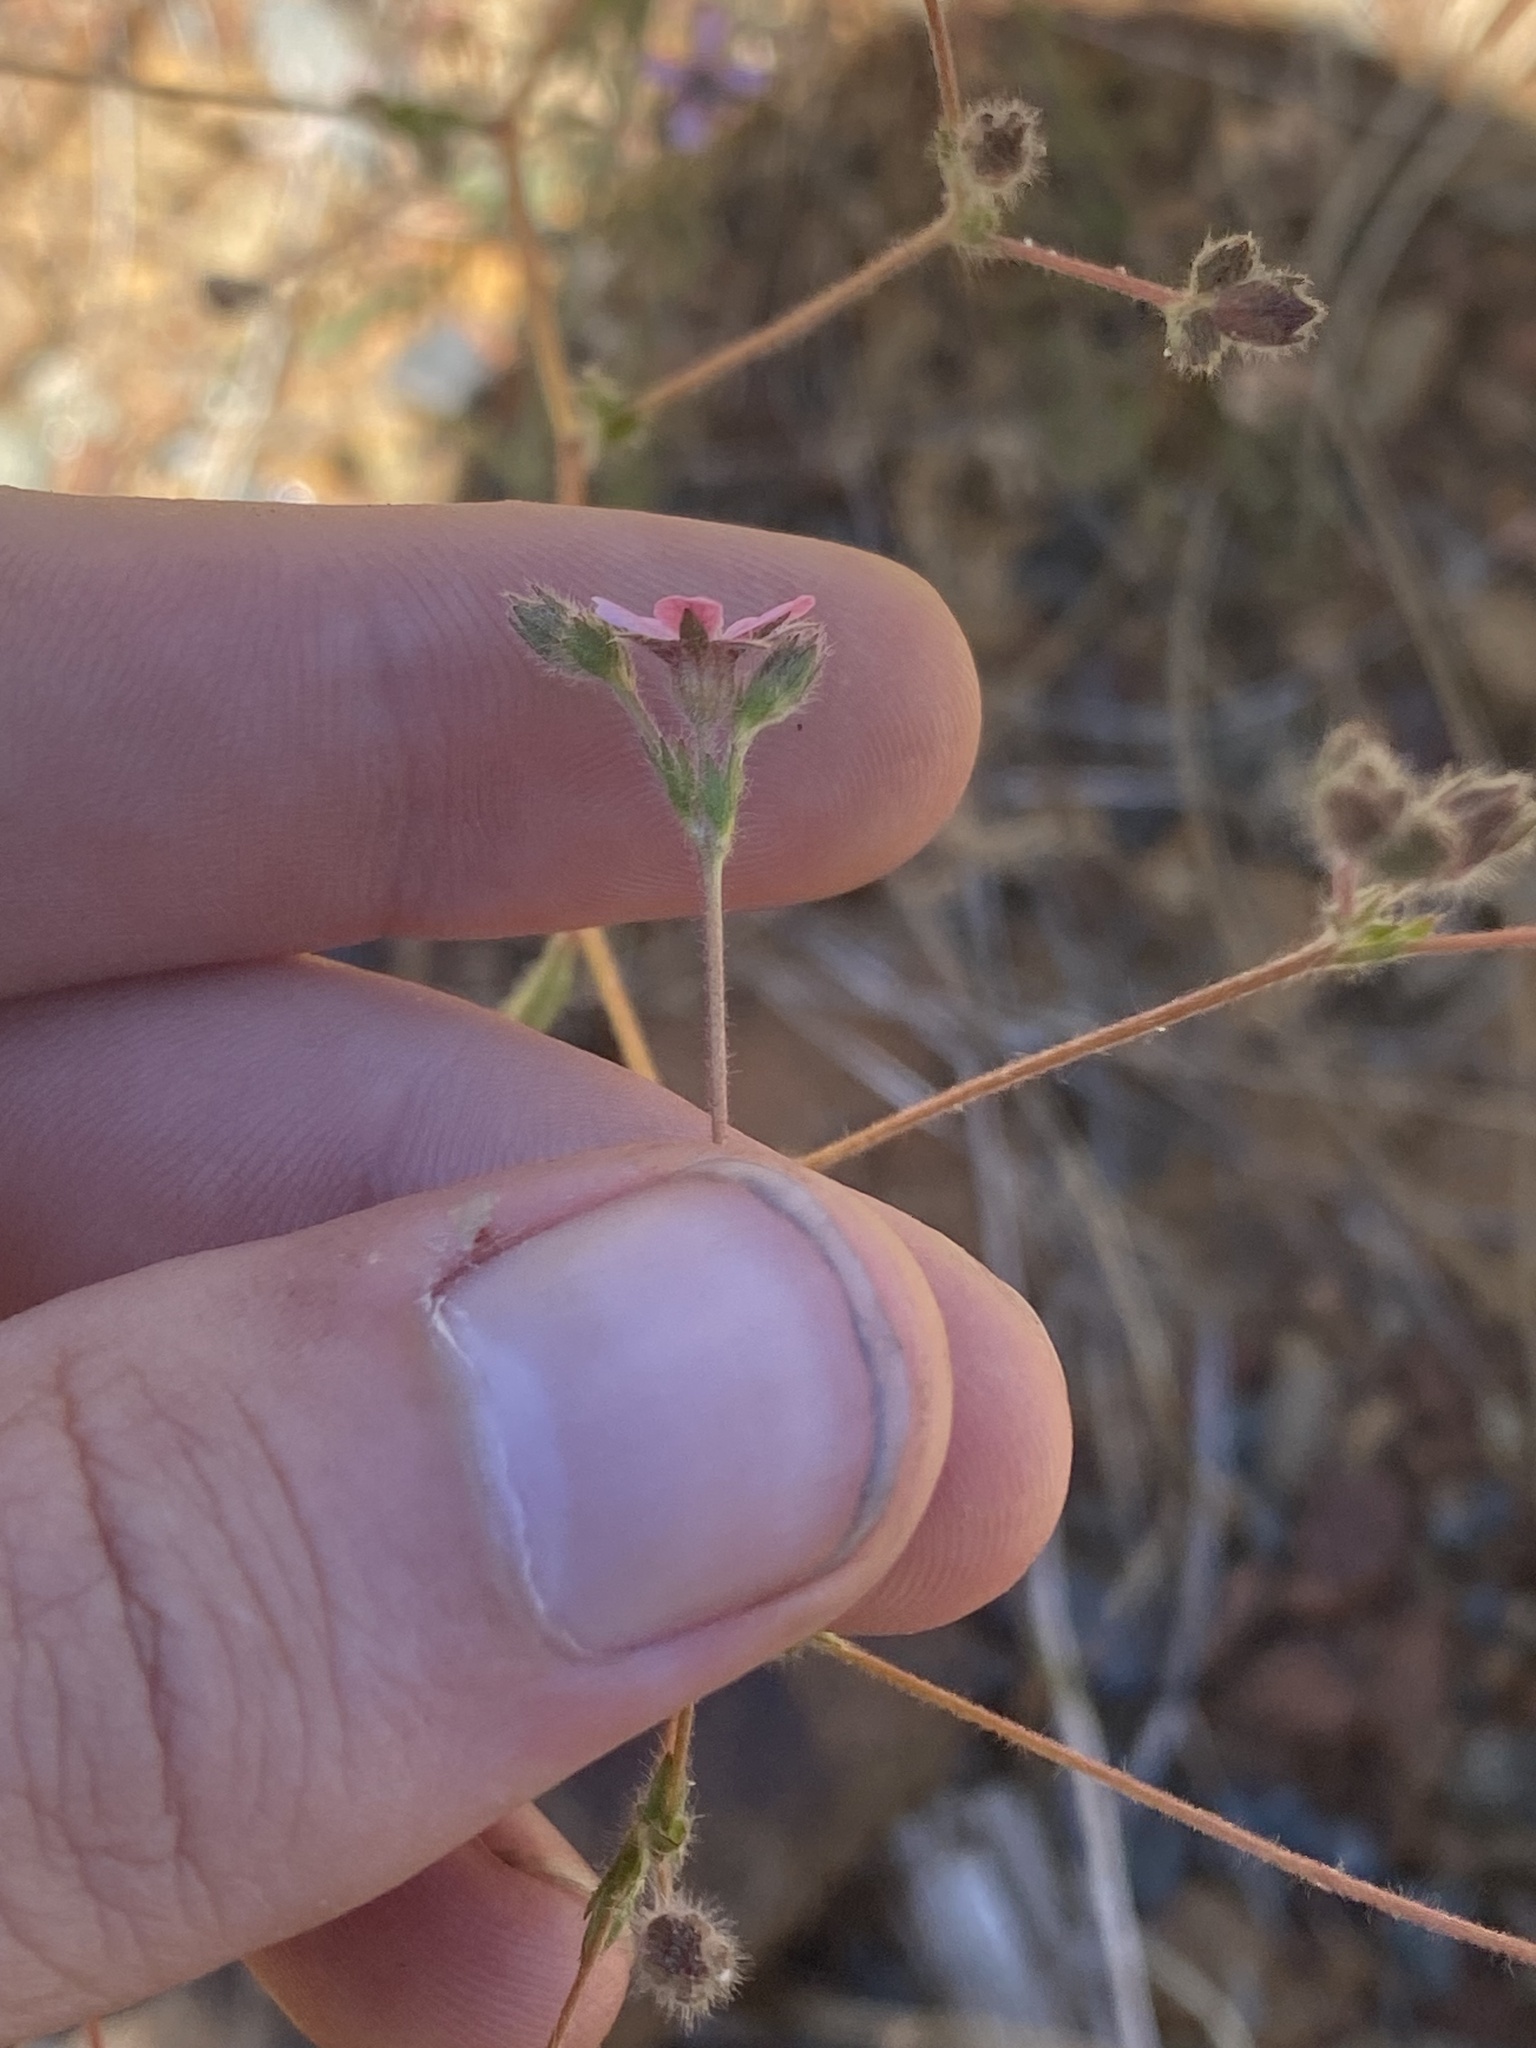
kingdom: Plantae
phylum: Tracheophyta
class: Magnoliopsida
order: Rosales
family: Rosaceae
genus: Potentilla
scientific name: Potentilla howellii
